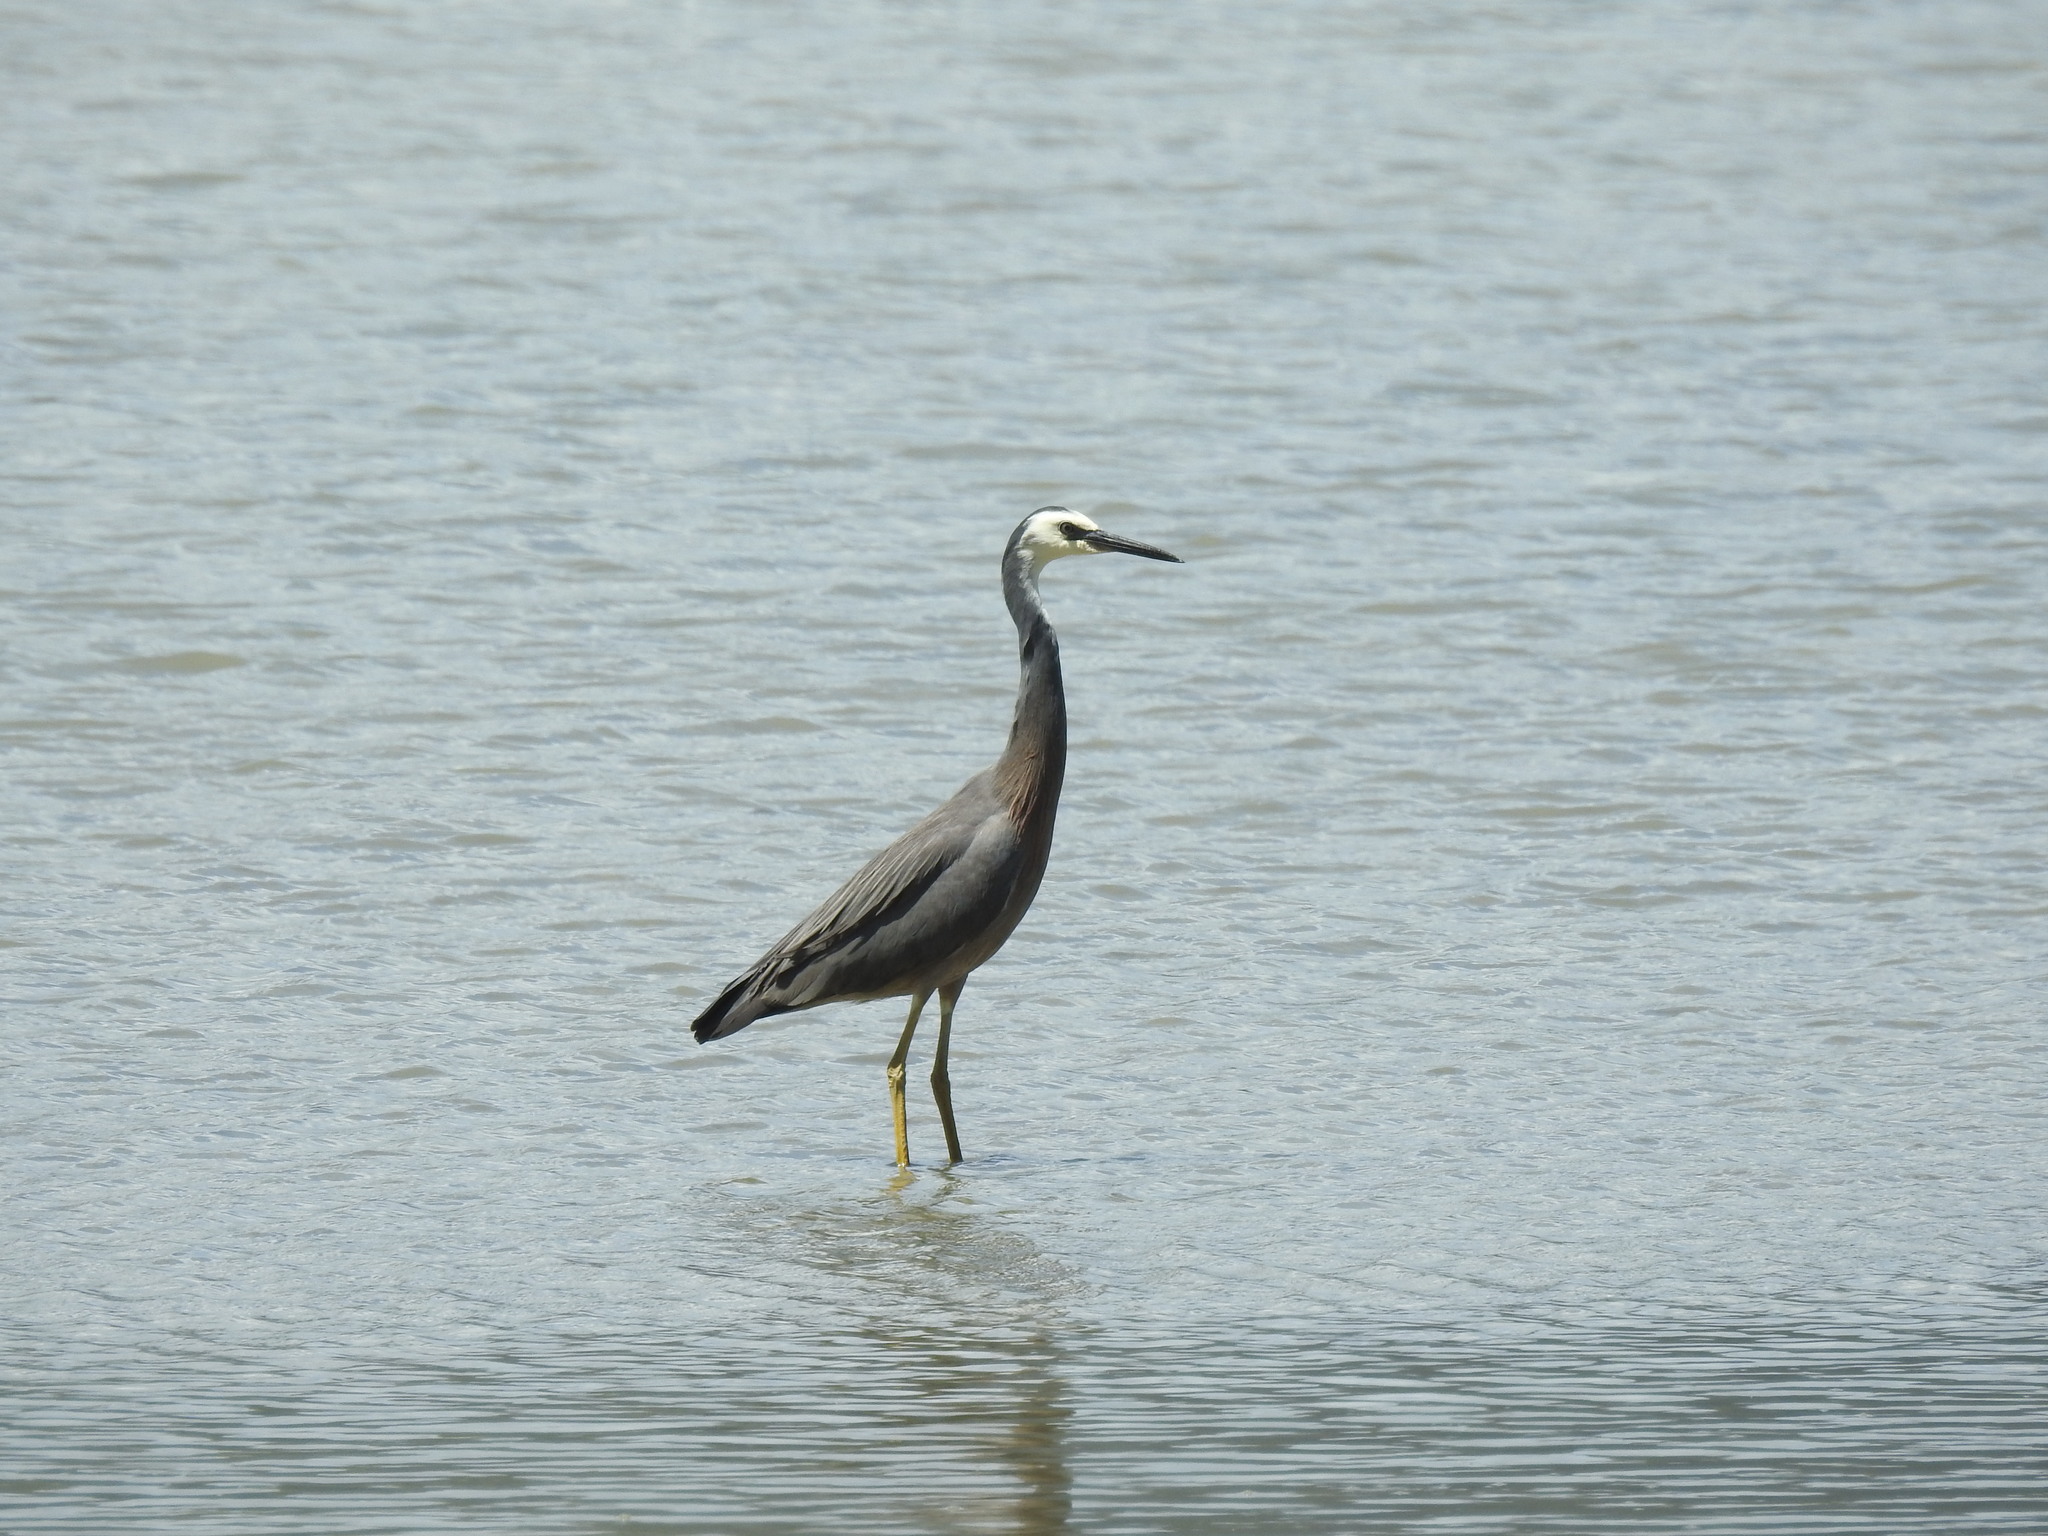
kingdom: Animalia
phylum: Chordata
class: Aves
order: Pelecaniformes
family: Ardeidae
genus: Egretta
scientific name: Egretta novaehollandiae
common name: White-faced heron
